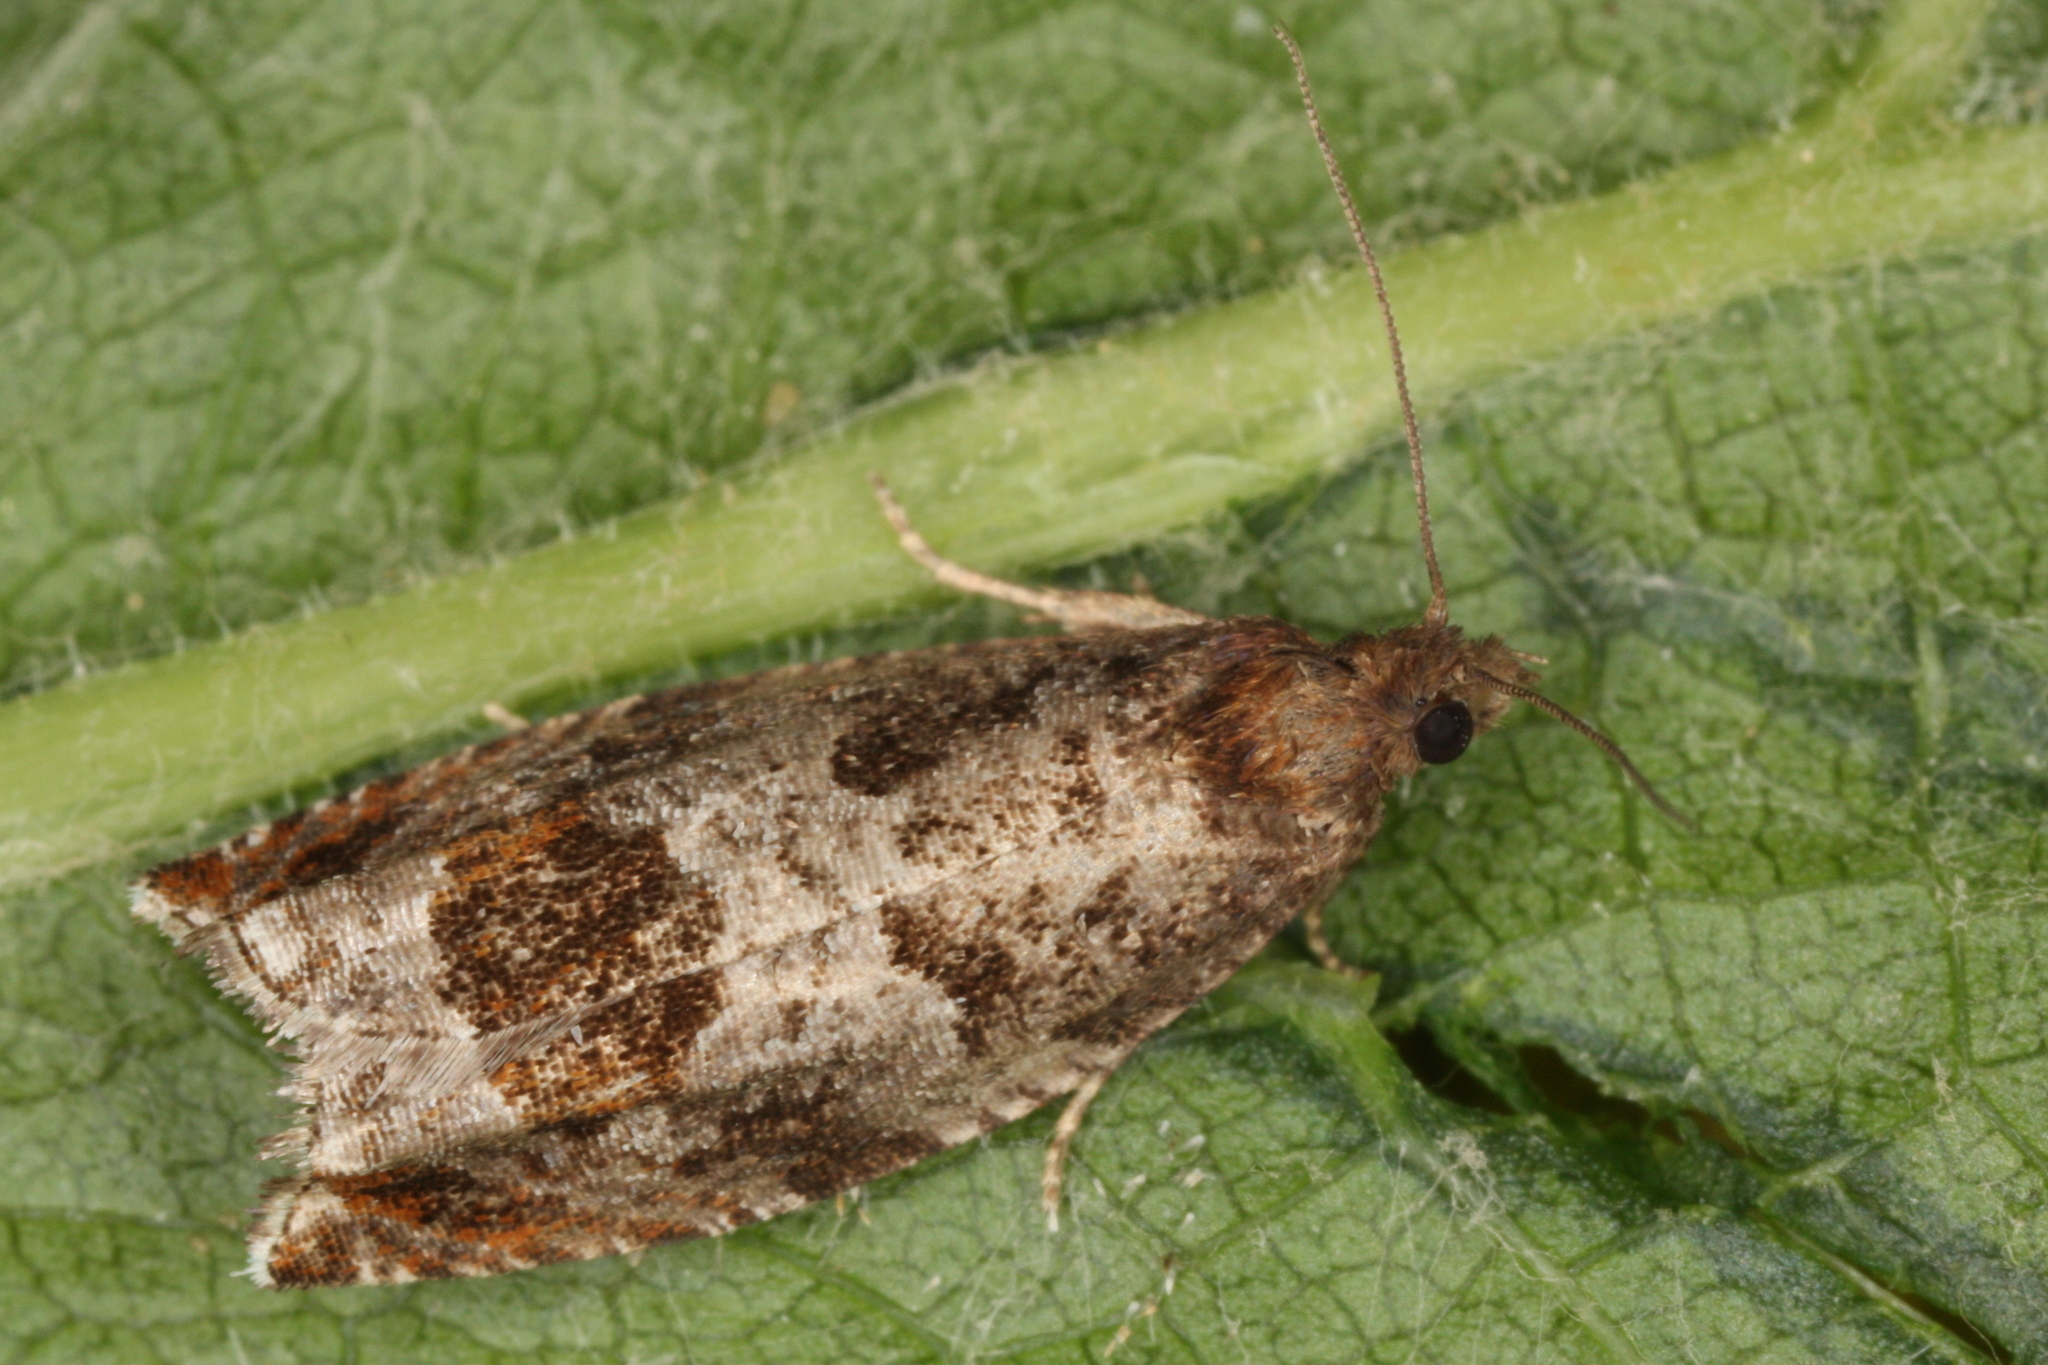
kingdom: Animalia
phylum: Arthropoda
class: Insecta
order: Lepidoptera
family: Tortricidae
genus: Ancylis
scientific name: Ancylis achatana
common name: Triangle-marked roller
